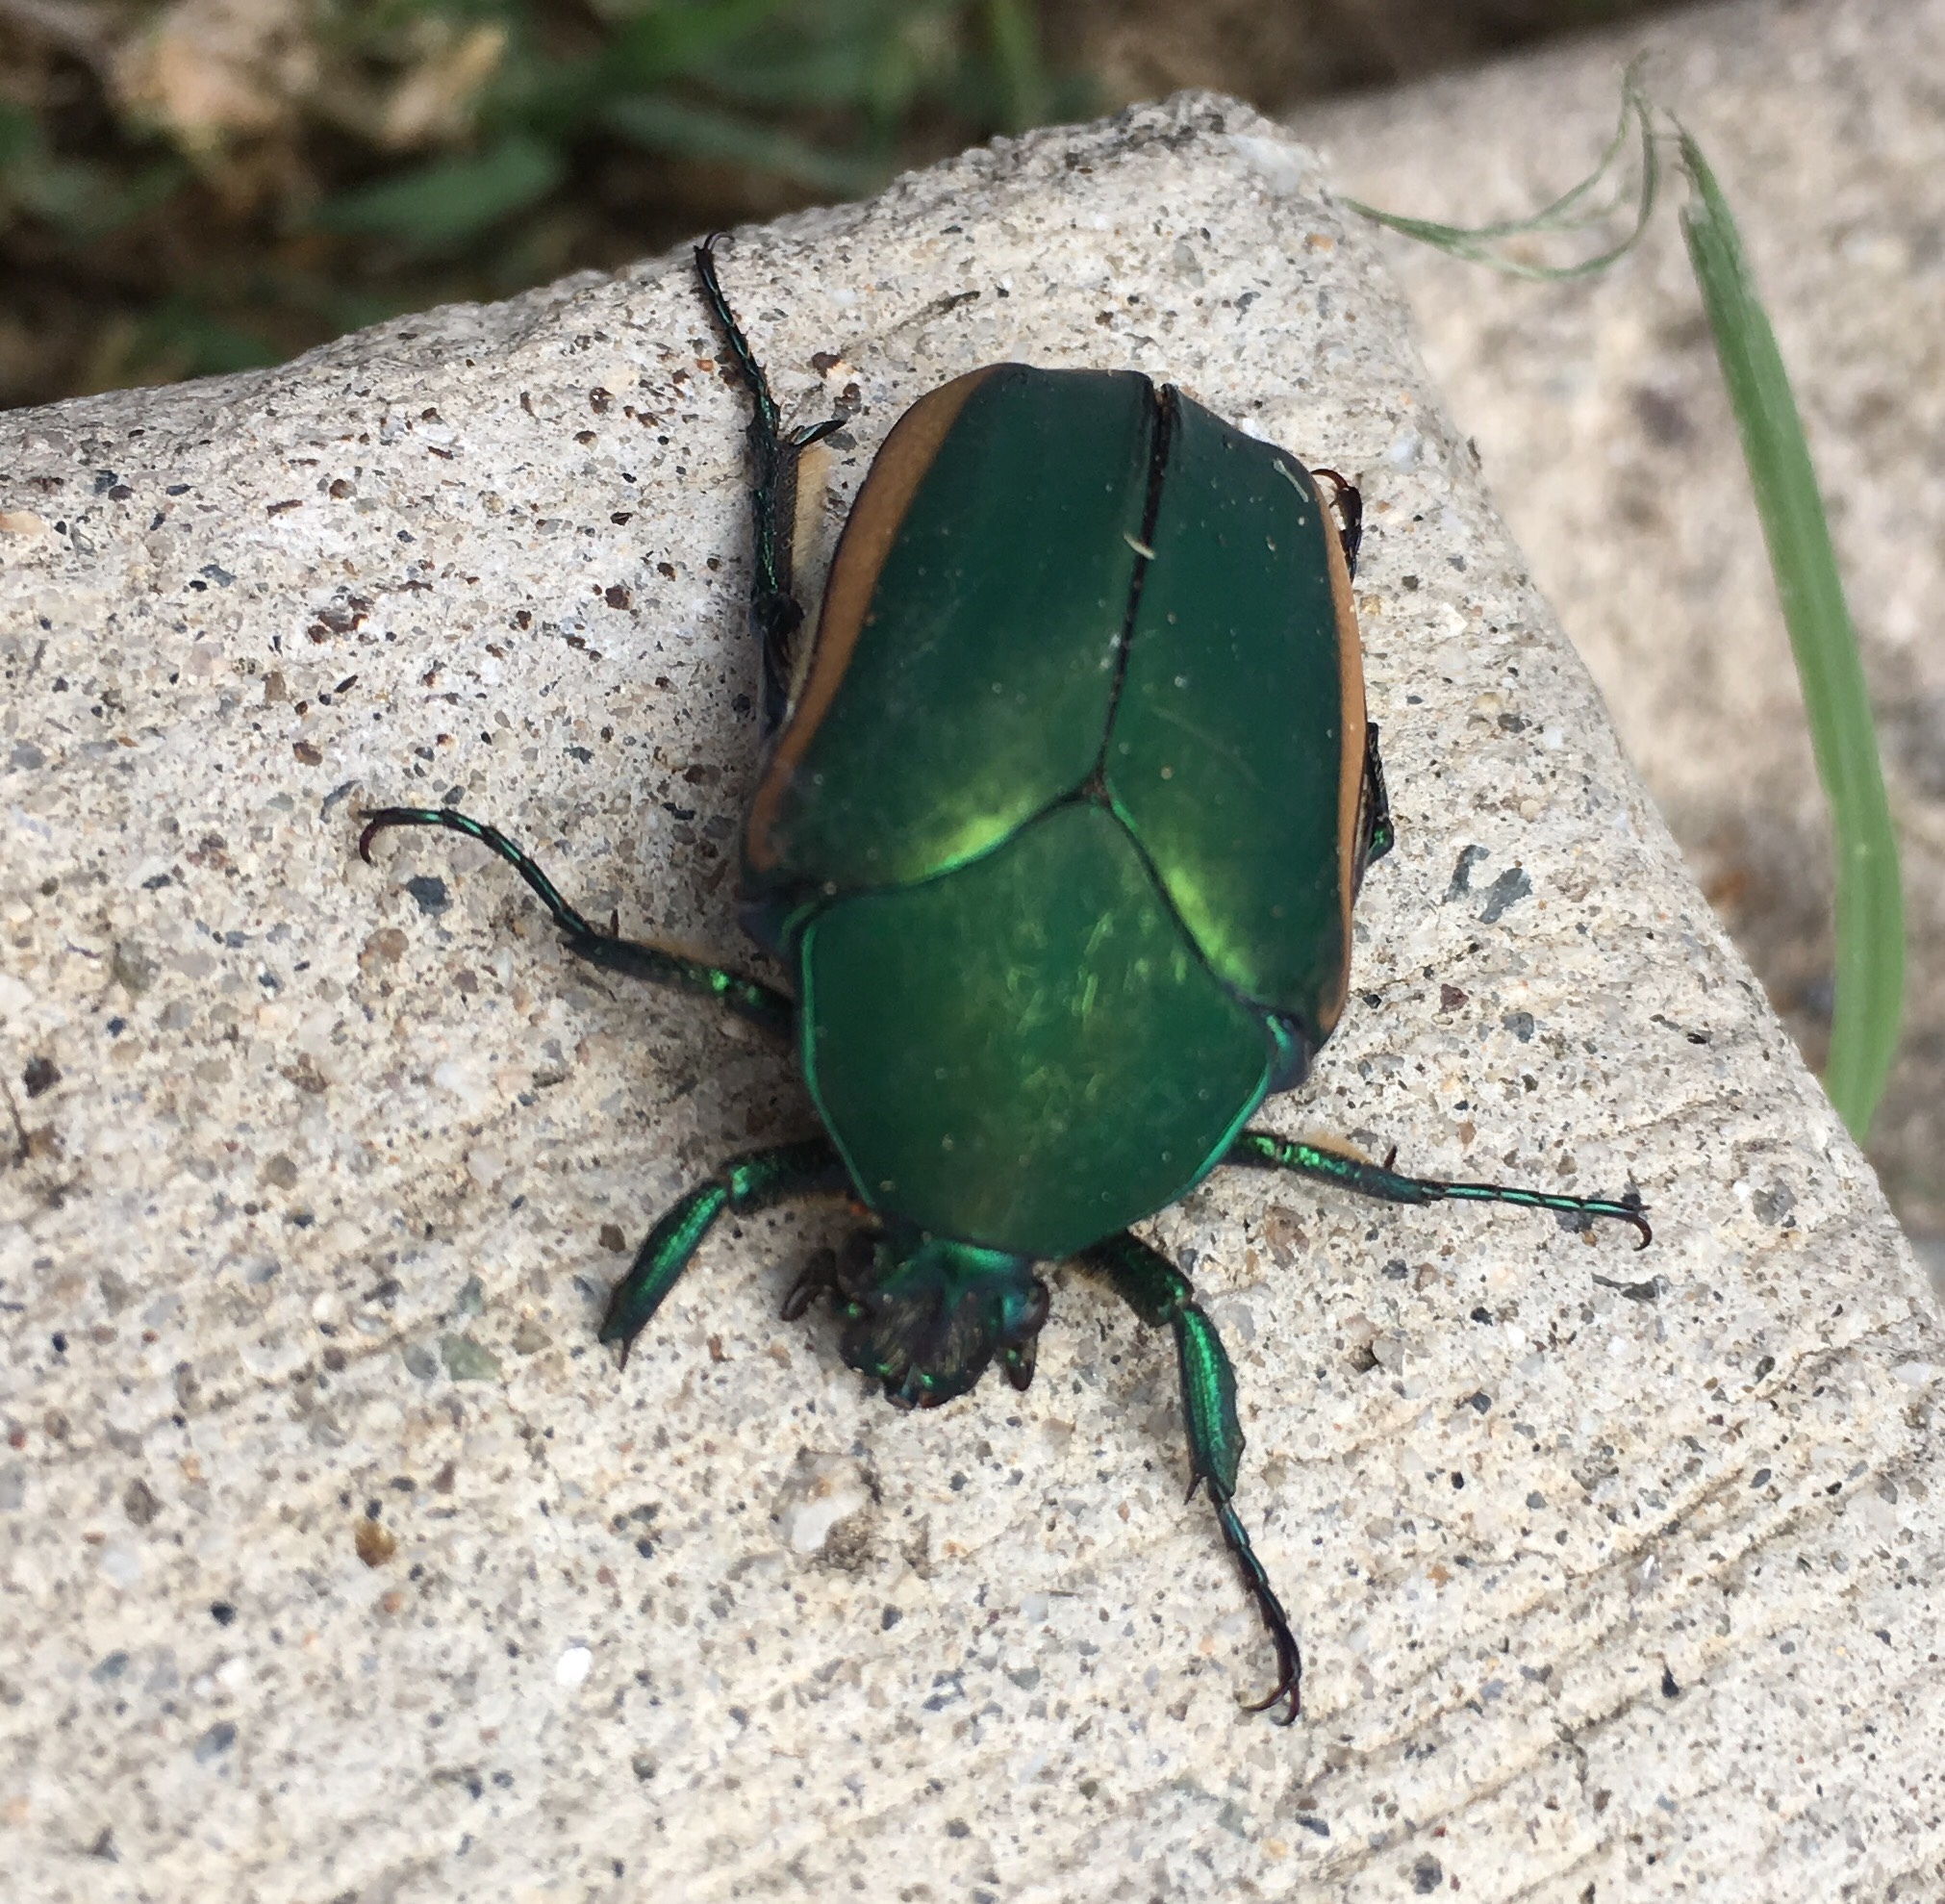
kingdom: Animalia
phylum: Arthropoda
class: Insecta
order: Coleoptera
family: Scarabaeidae
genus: Cotinis
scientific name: Cotinis mutabilis
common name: Figeater beetle
